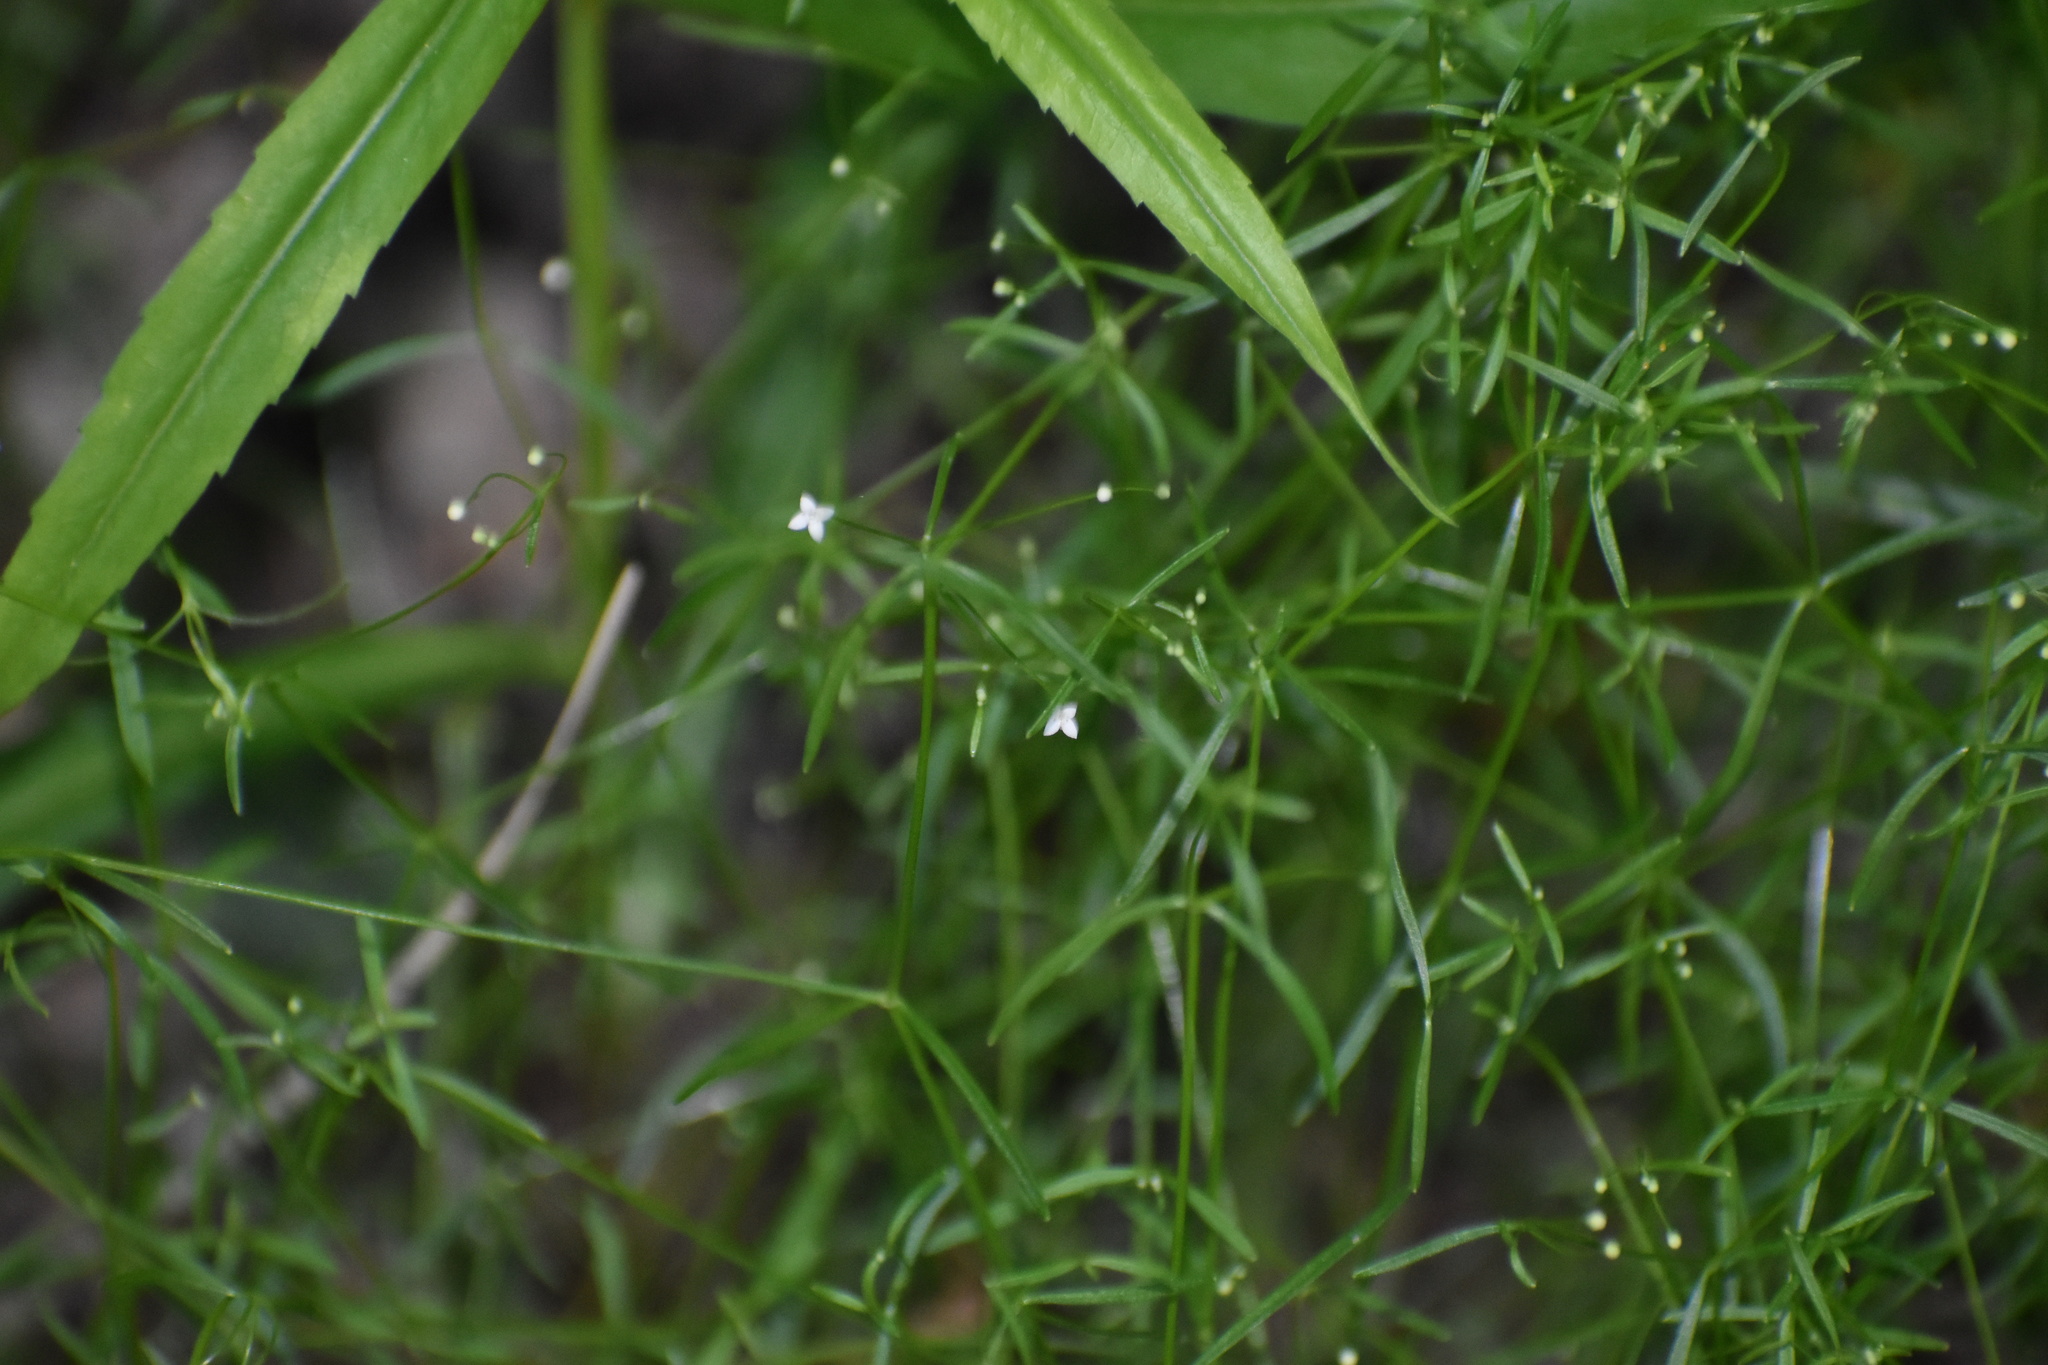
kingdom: Plantae
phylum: Tracheophyta
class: Magnoliopsida
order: Gentianales
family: Rubiaceae
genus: Galium
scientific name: Galium tinctorium
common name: Bedstraw
